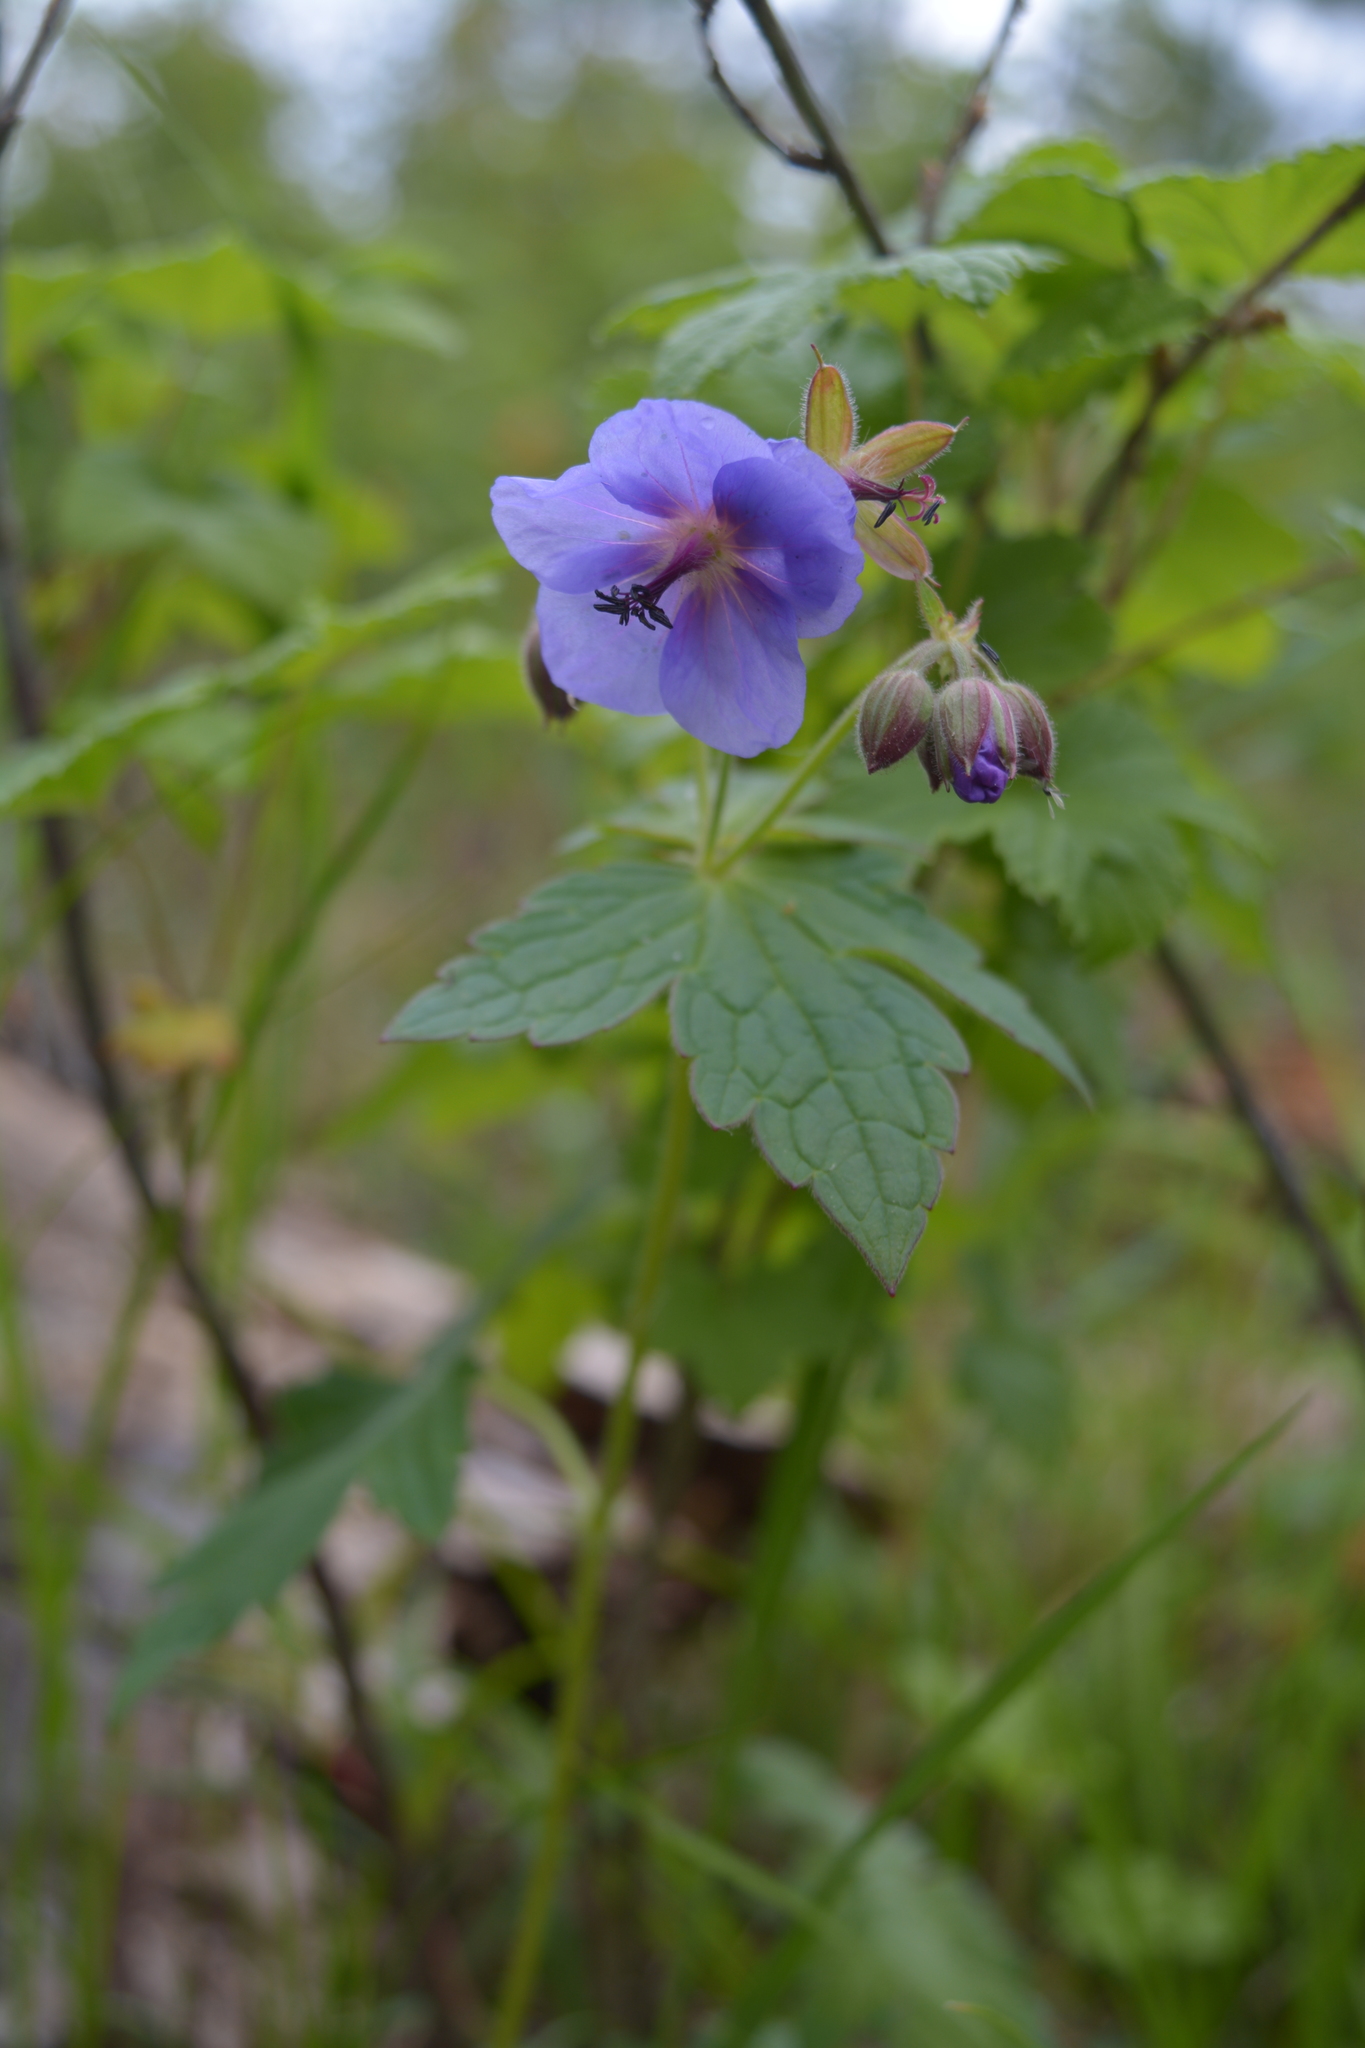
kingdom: Plantae
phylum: Tracheophyta
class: Magnoliopsida
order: Geraniales
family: Geraniaceae
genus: Geranium
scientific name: Geranium platyanthum
